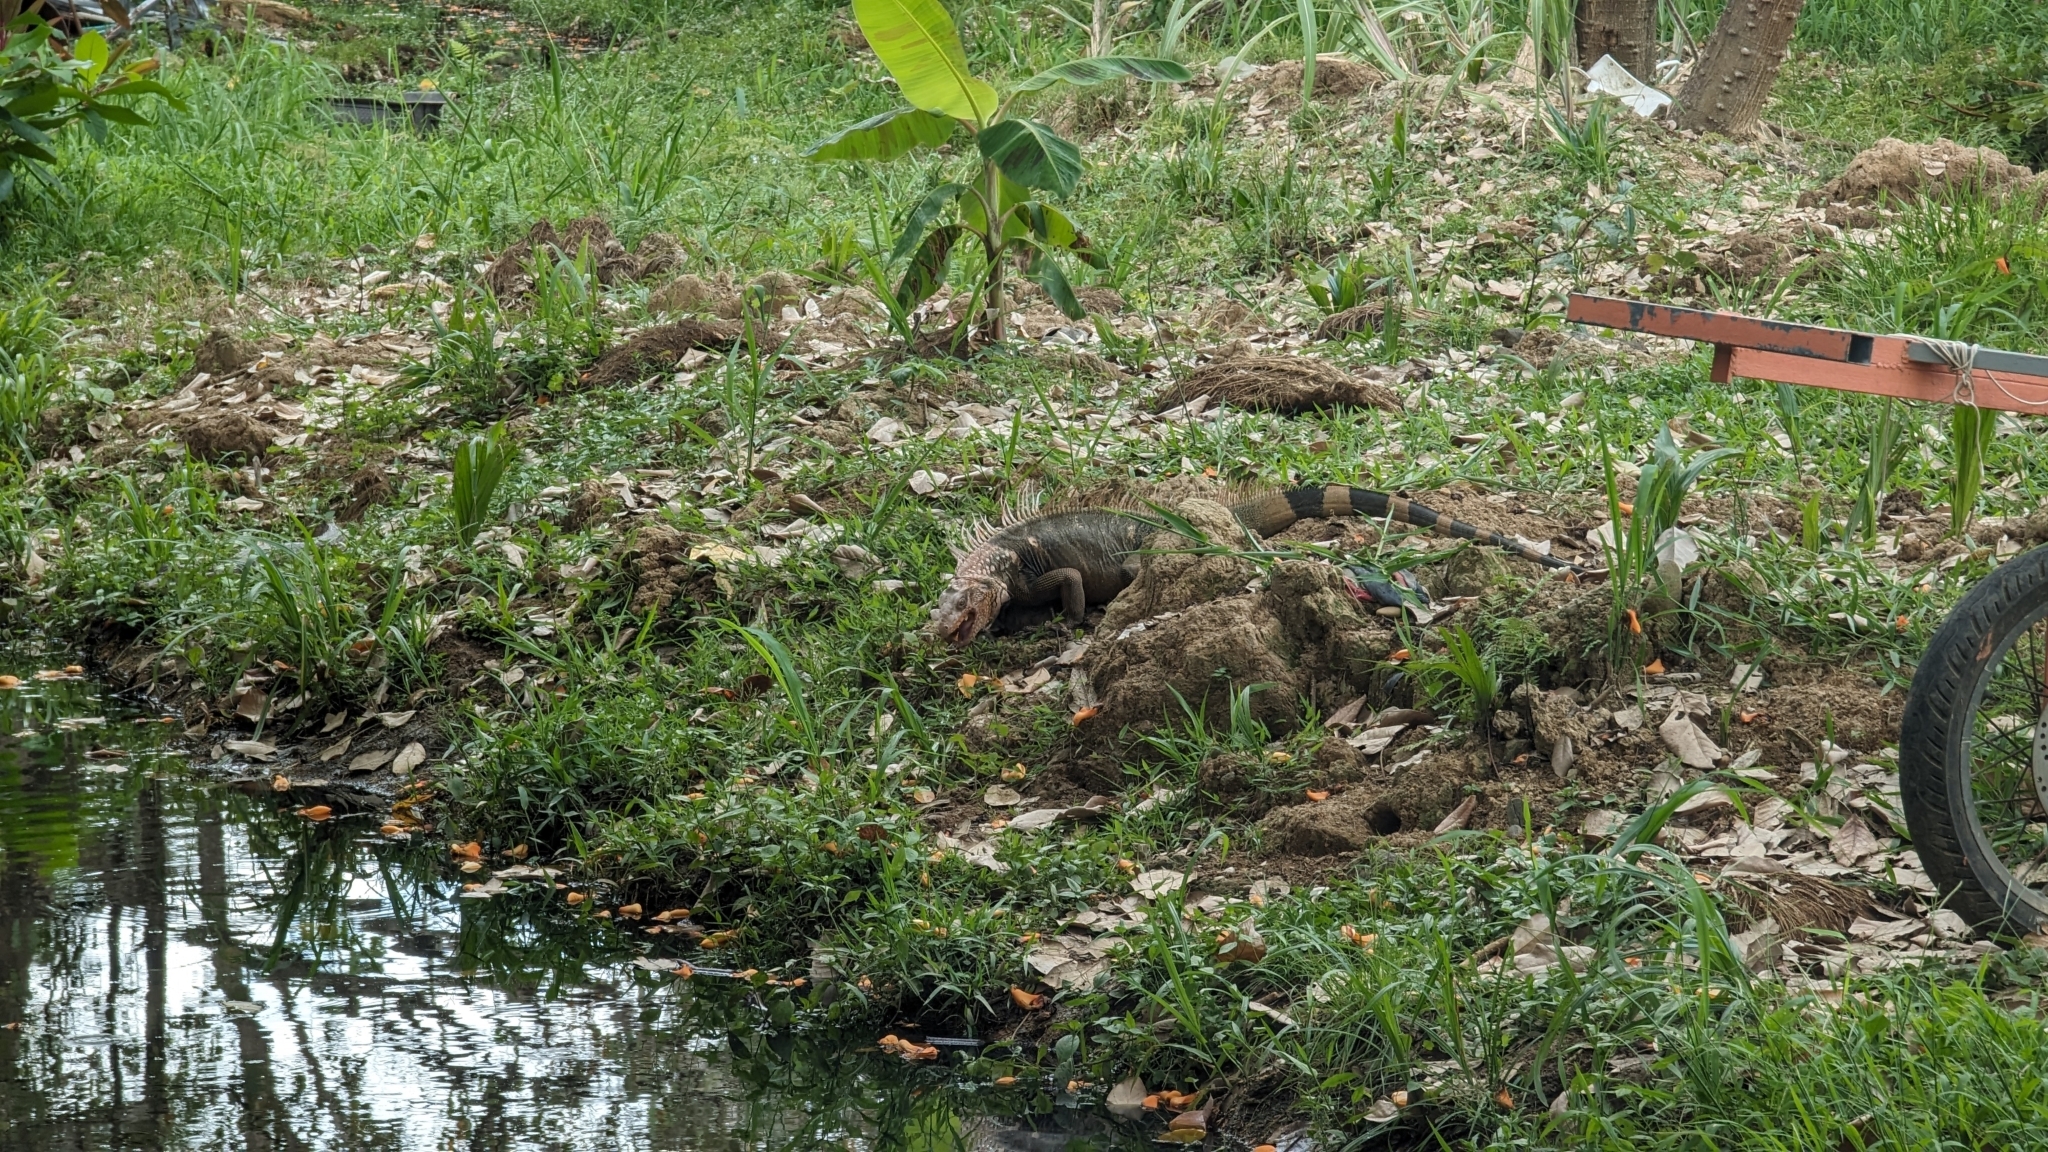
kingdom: Animalia
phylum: Chordata
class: Squamata
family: Iguanidae
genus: Iguana
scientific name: Iguana iguana
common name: Green iguana
